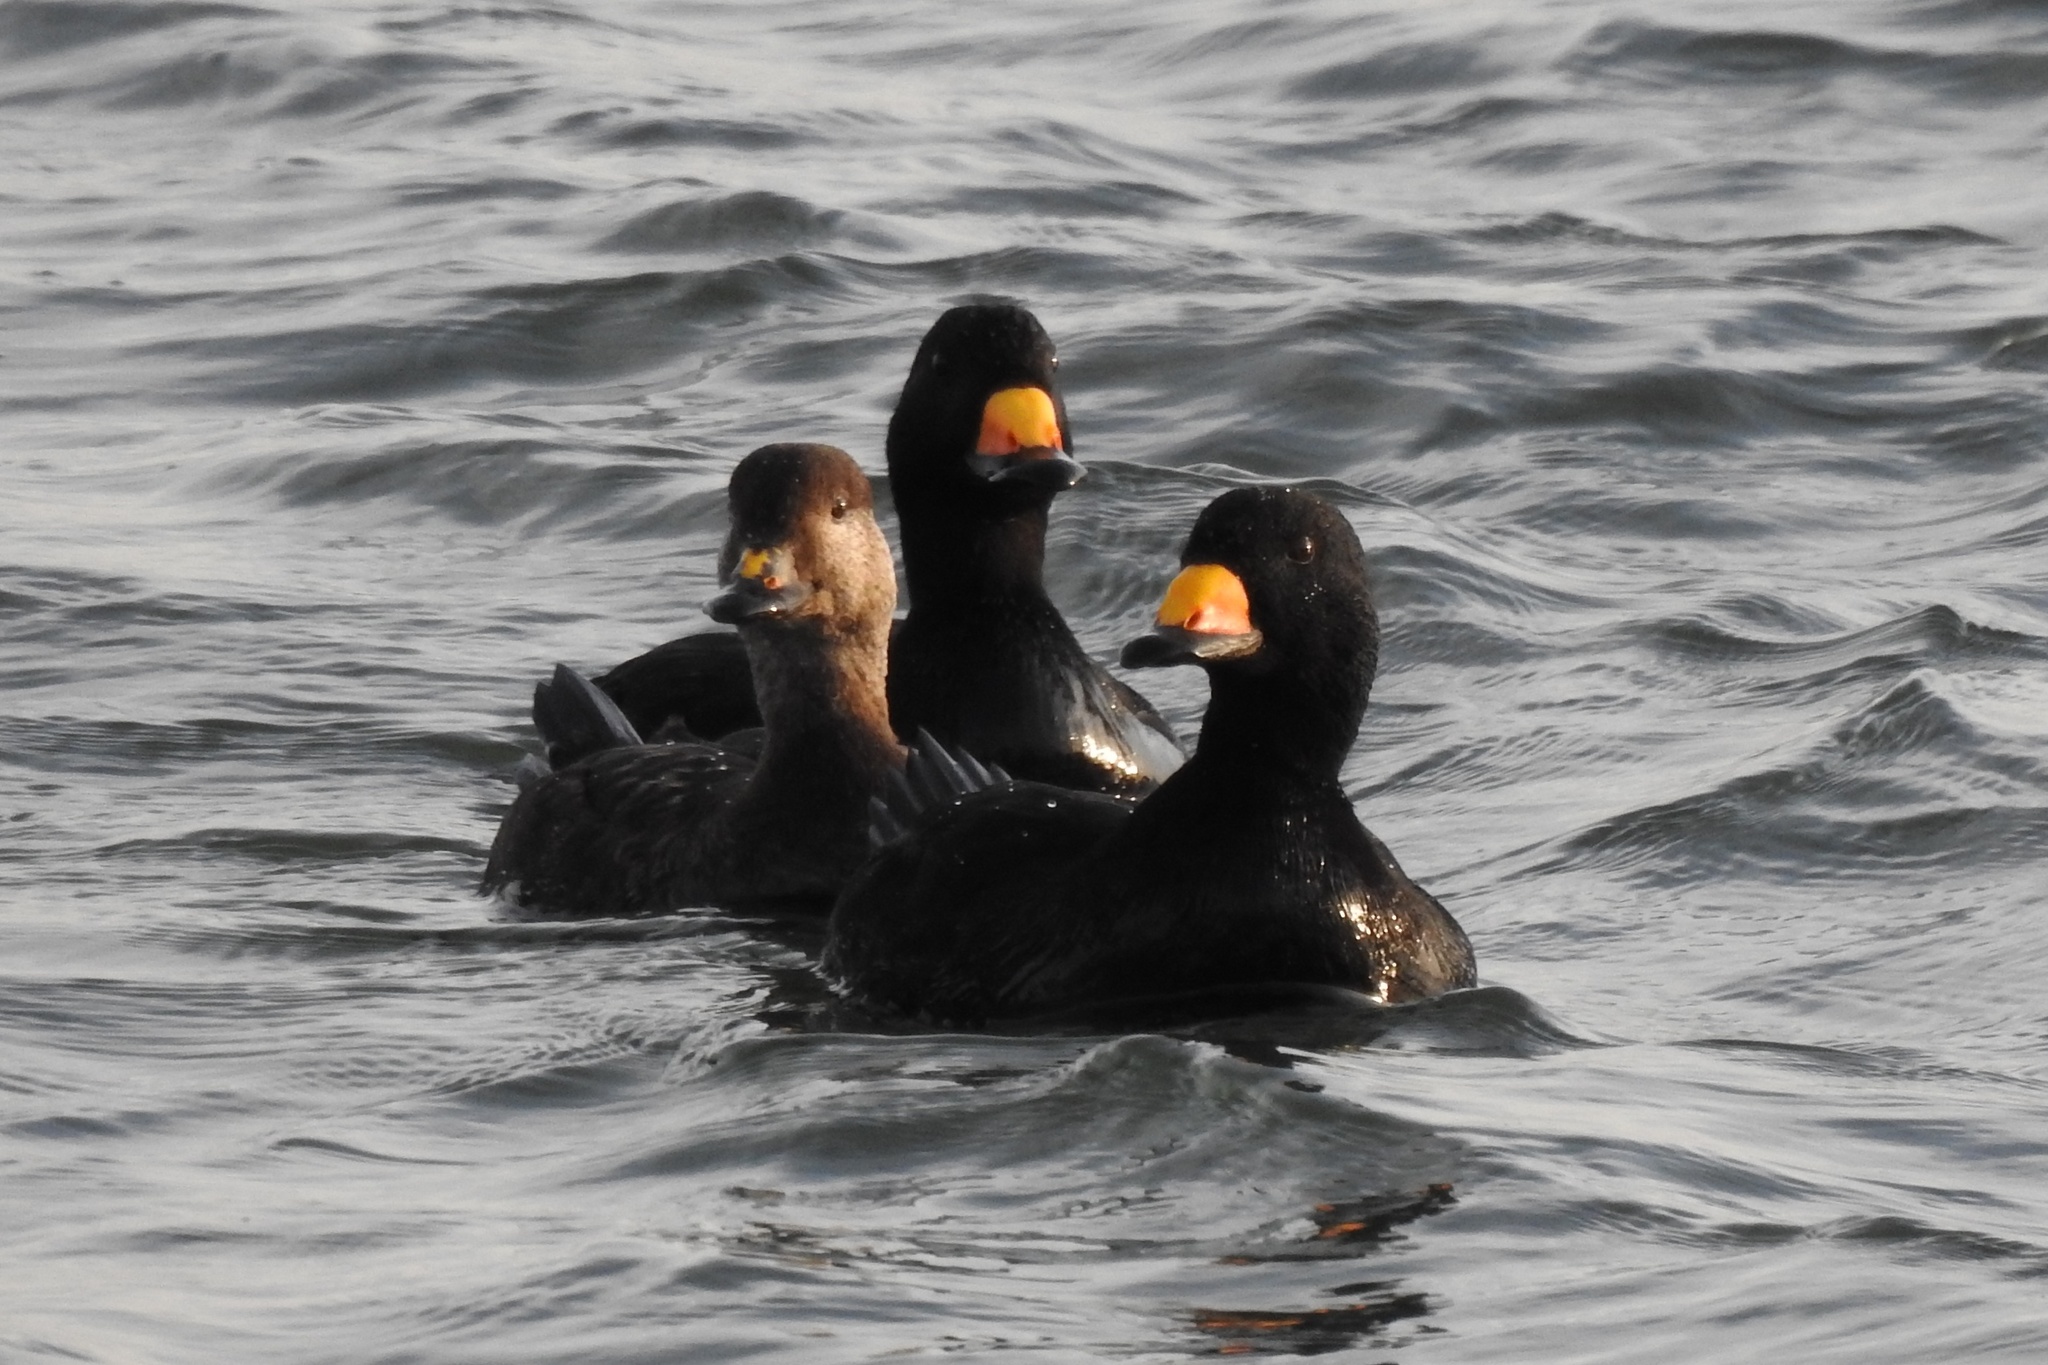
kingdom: Animalia
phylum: Chordata
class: Aves
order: Anseriformes
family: Anatidae
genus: Melanitta
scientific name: Melanitta americana
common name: Black scoter
